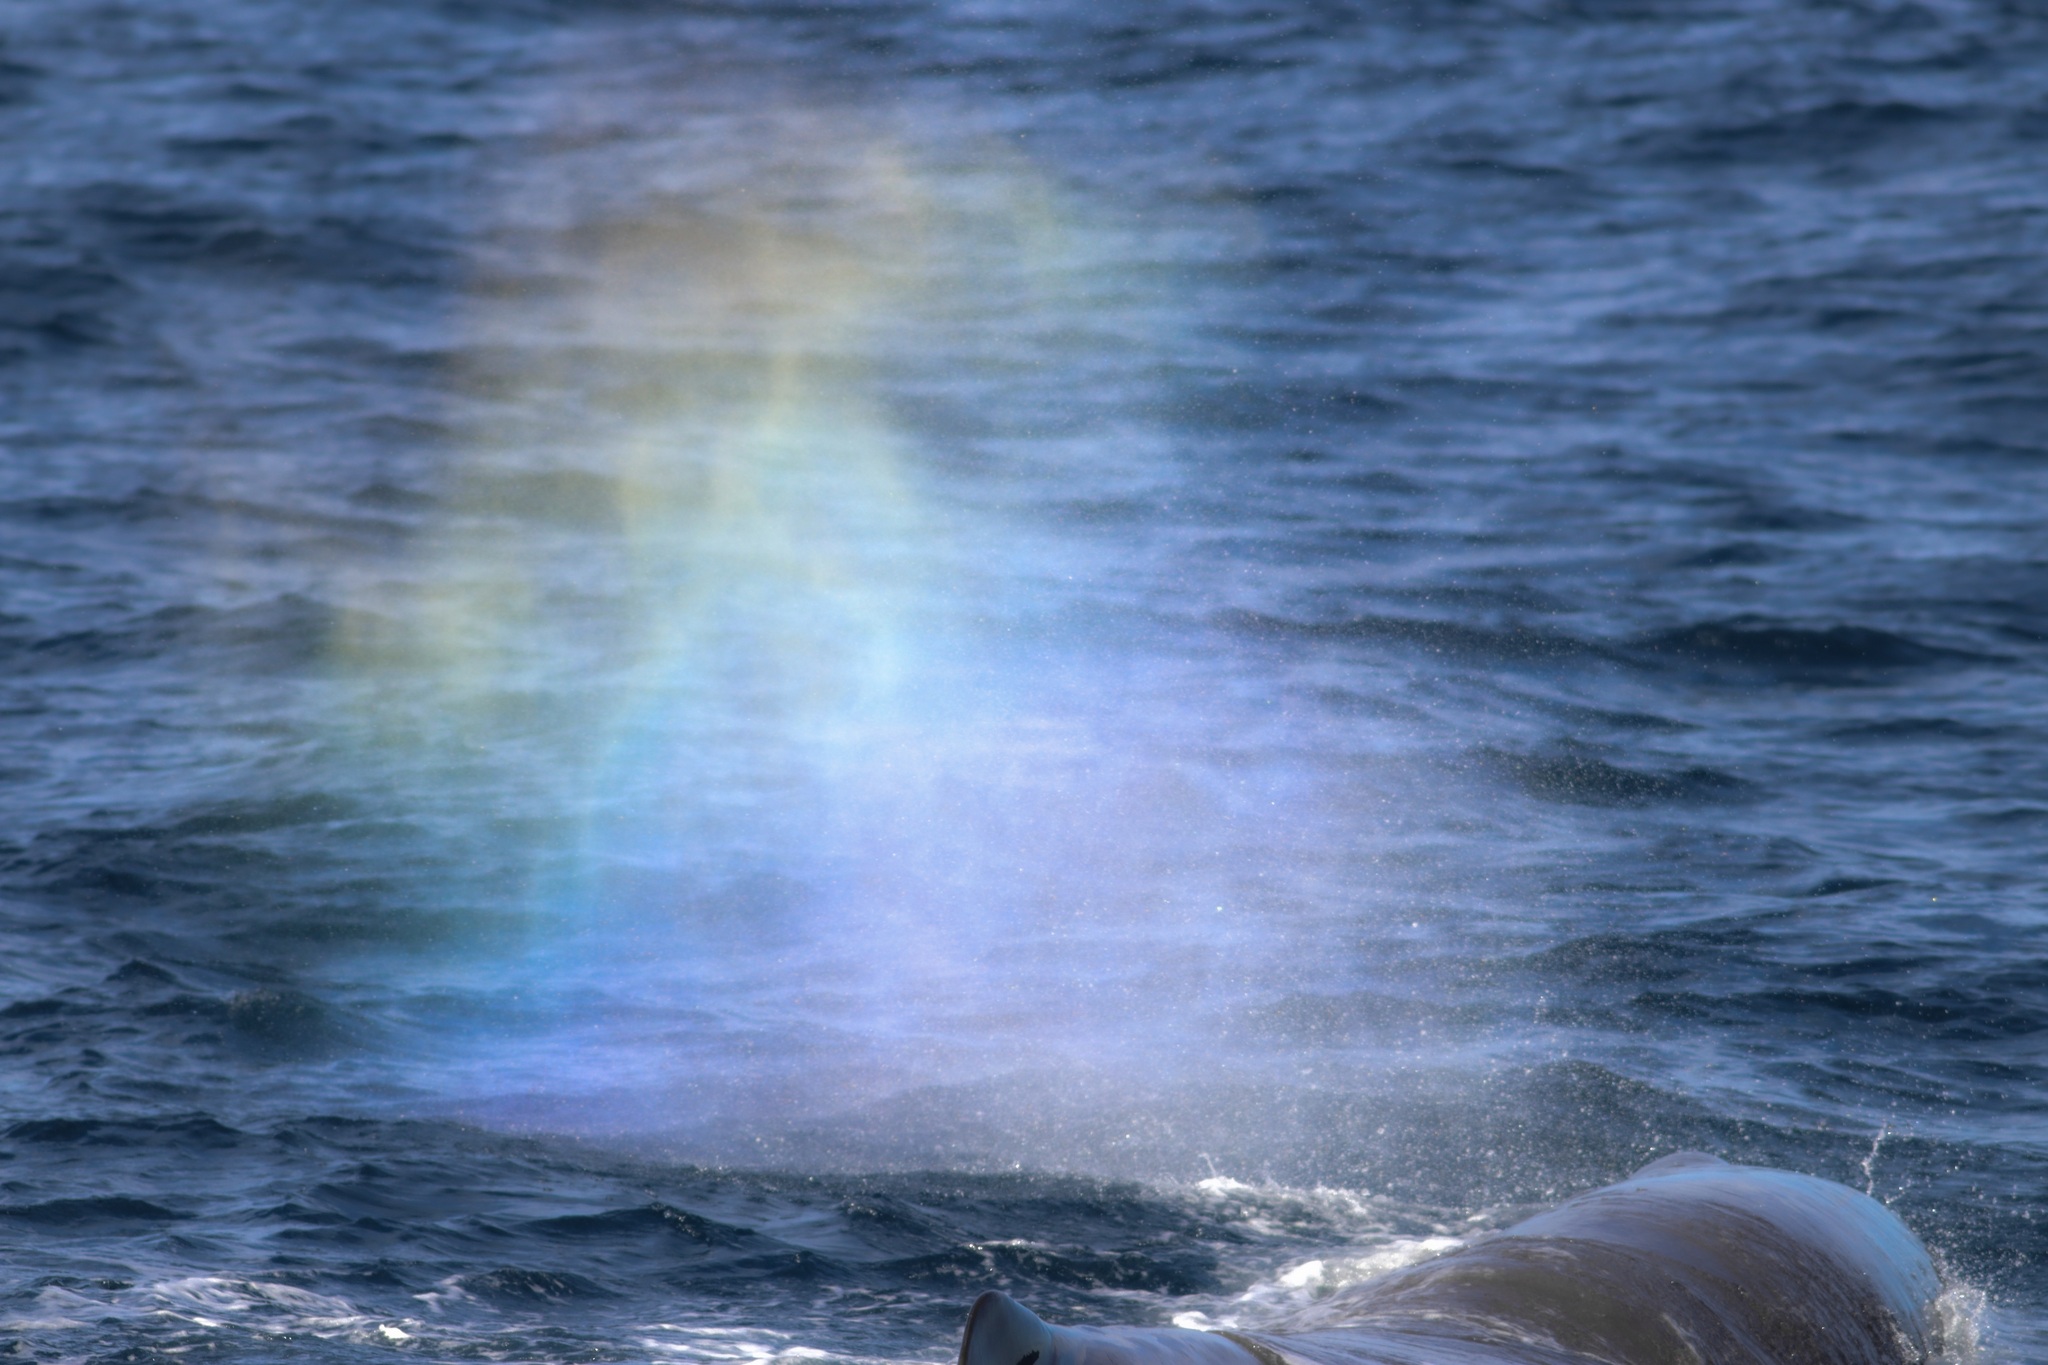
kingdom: Animalia
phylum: Chordata
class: Mammalia
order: Cetacea
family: Physeteridae
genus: Physeter
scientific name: Physeter macrocephalus
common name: Sperm whale
